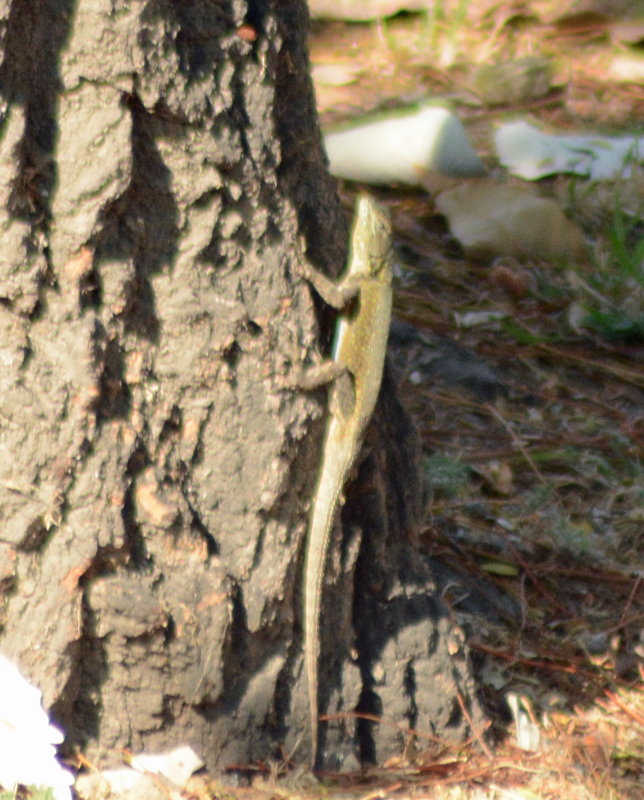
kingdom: Animalia
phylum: Chordata
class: Squamata
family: Phrynosomatidae
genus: Sceloporus
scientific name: Sceloporus grammicus
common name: Mesquite lizard
